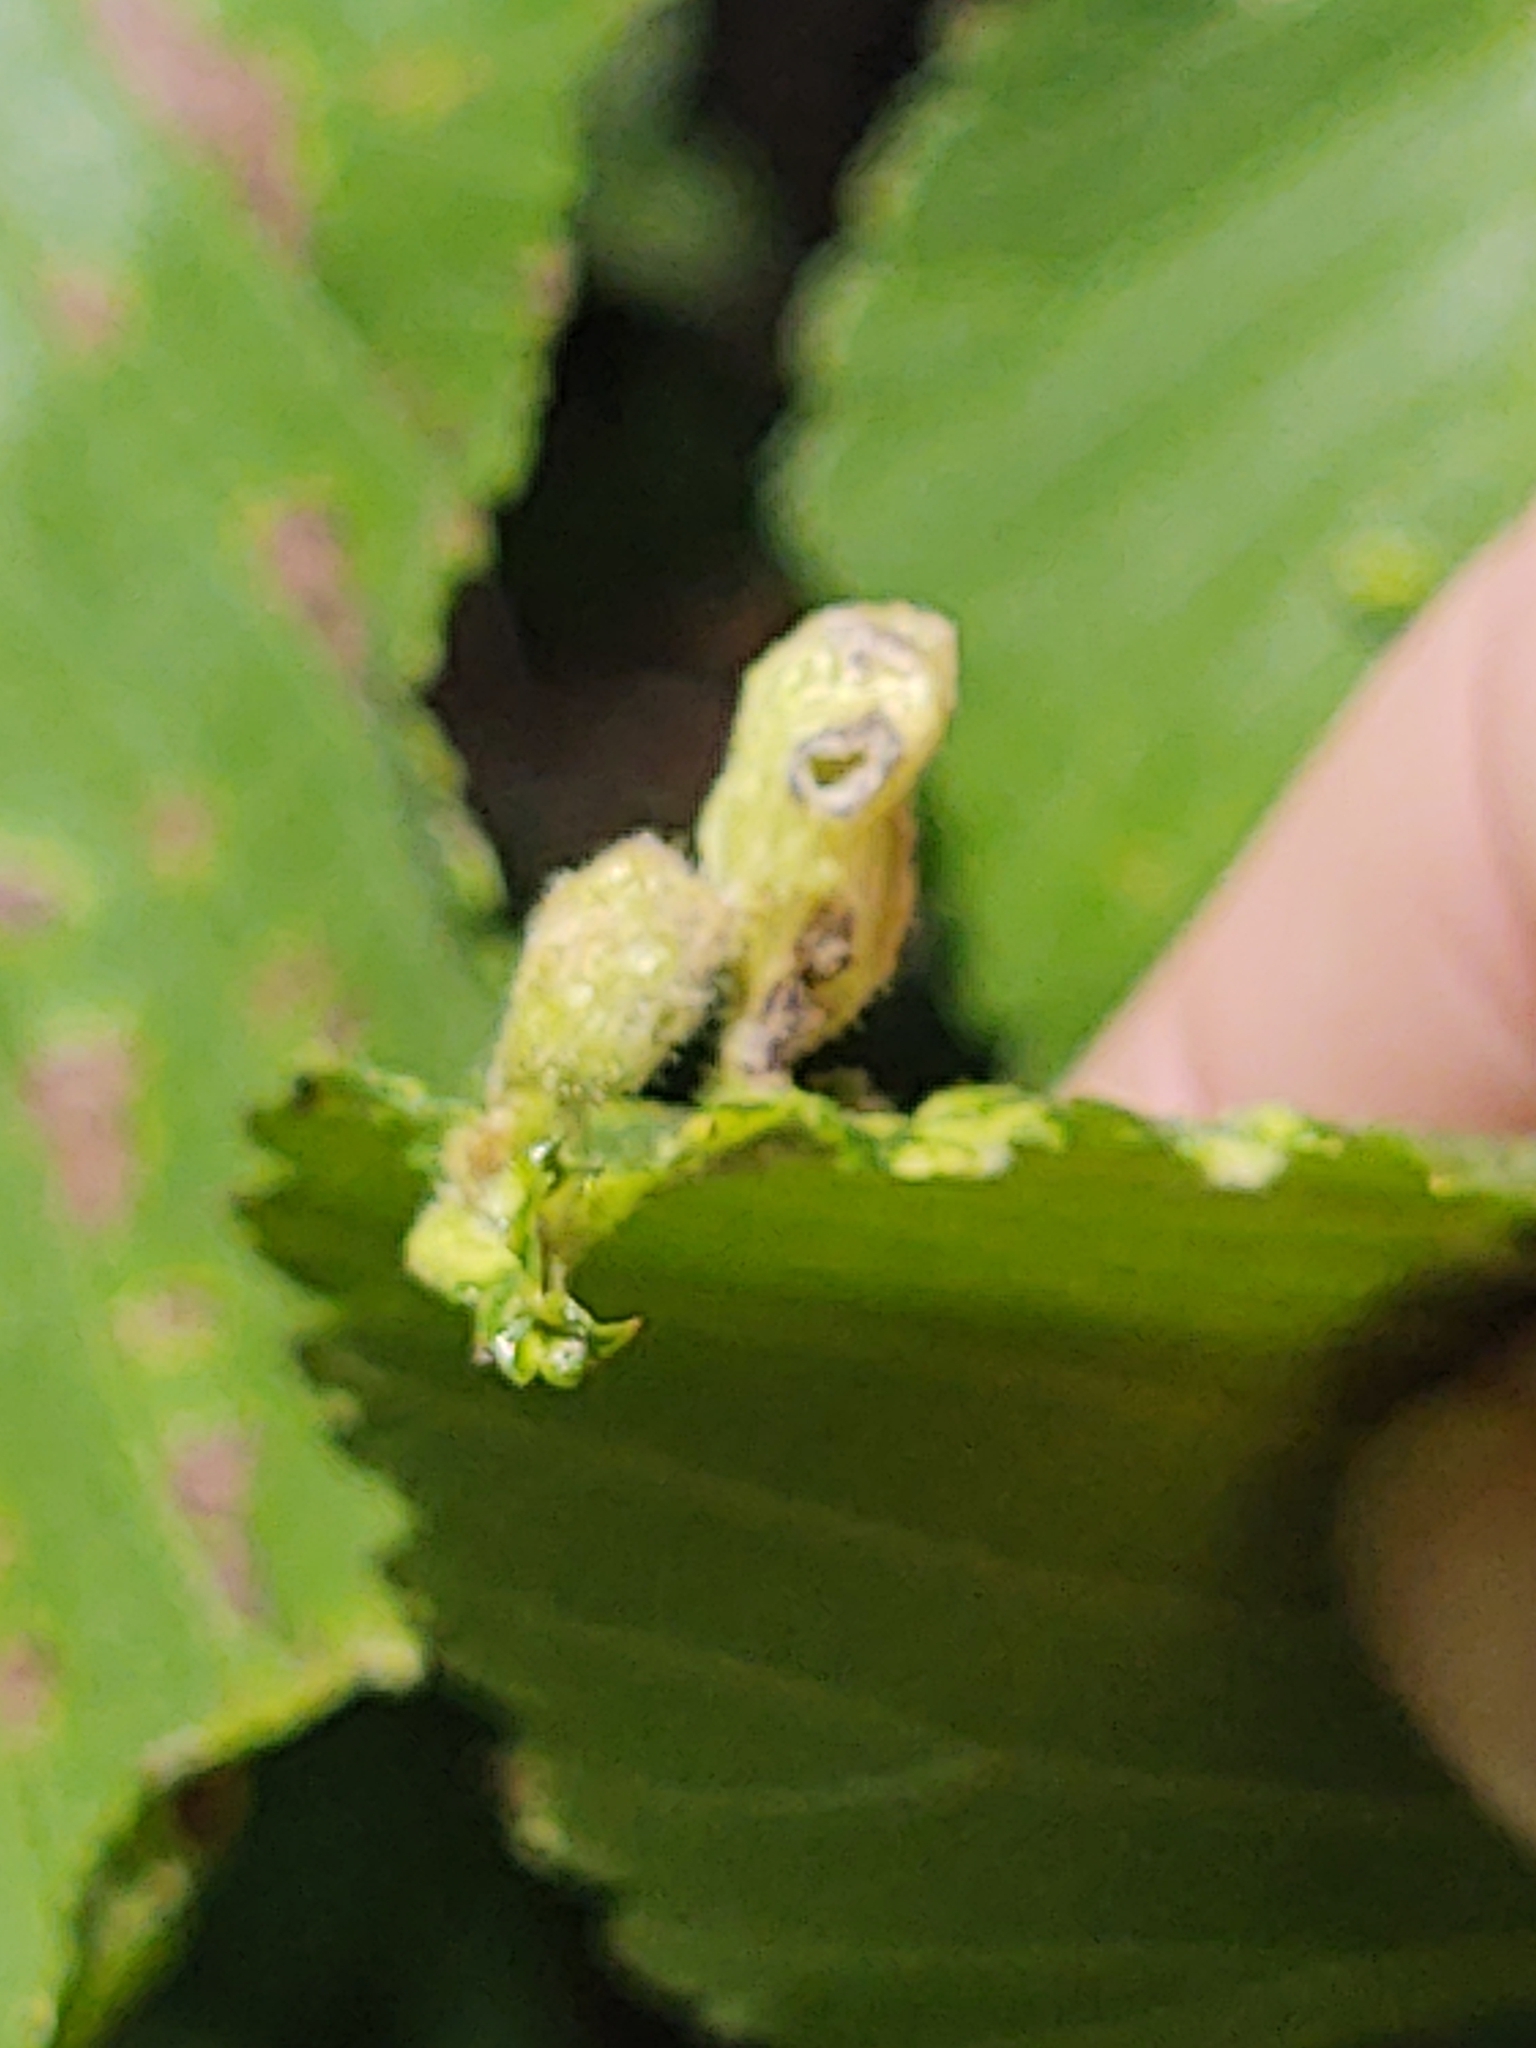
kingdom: Animalia
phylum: Arthropoda
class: Insecta
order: Hemiptera
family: Aphididae
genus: Tetraneura
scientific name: Tetraneura nigriabdominalis
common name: Aphid
